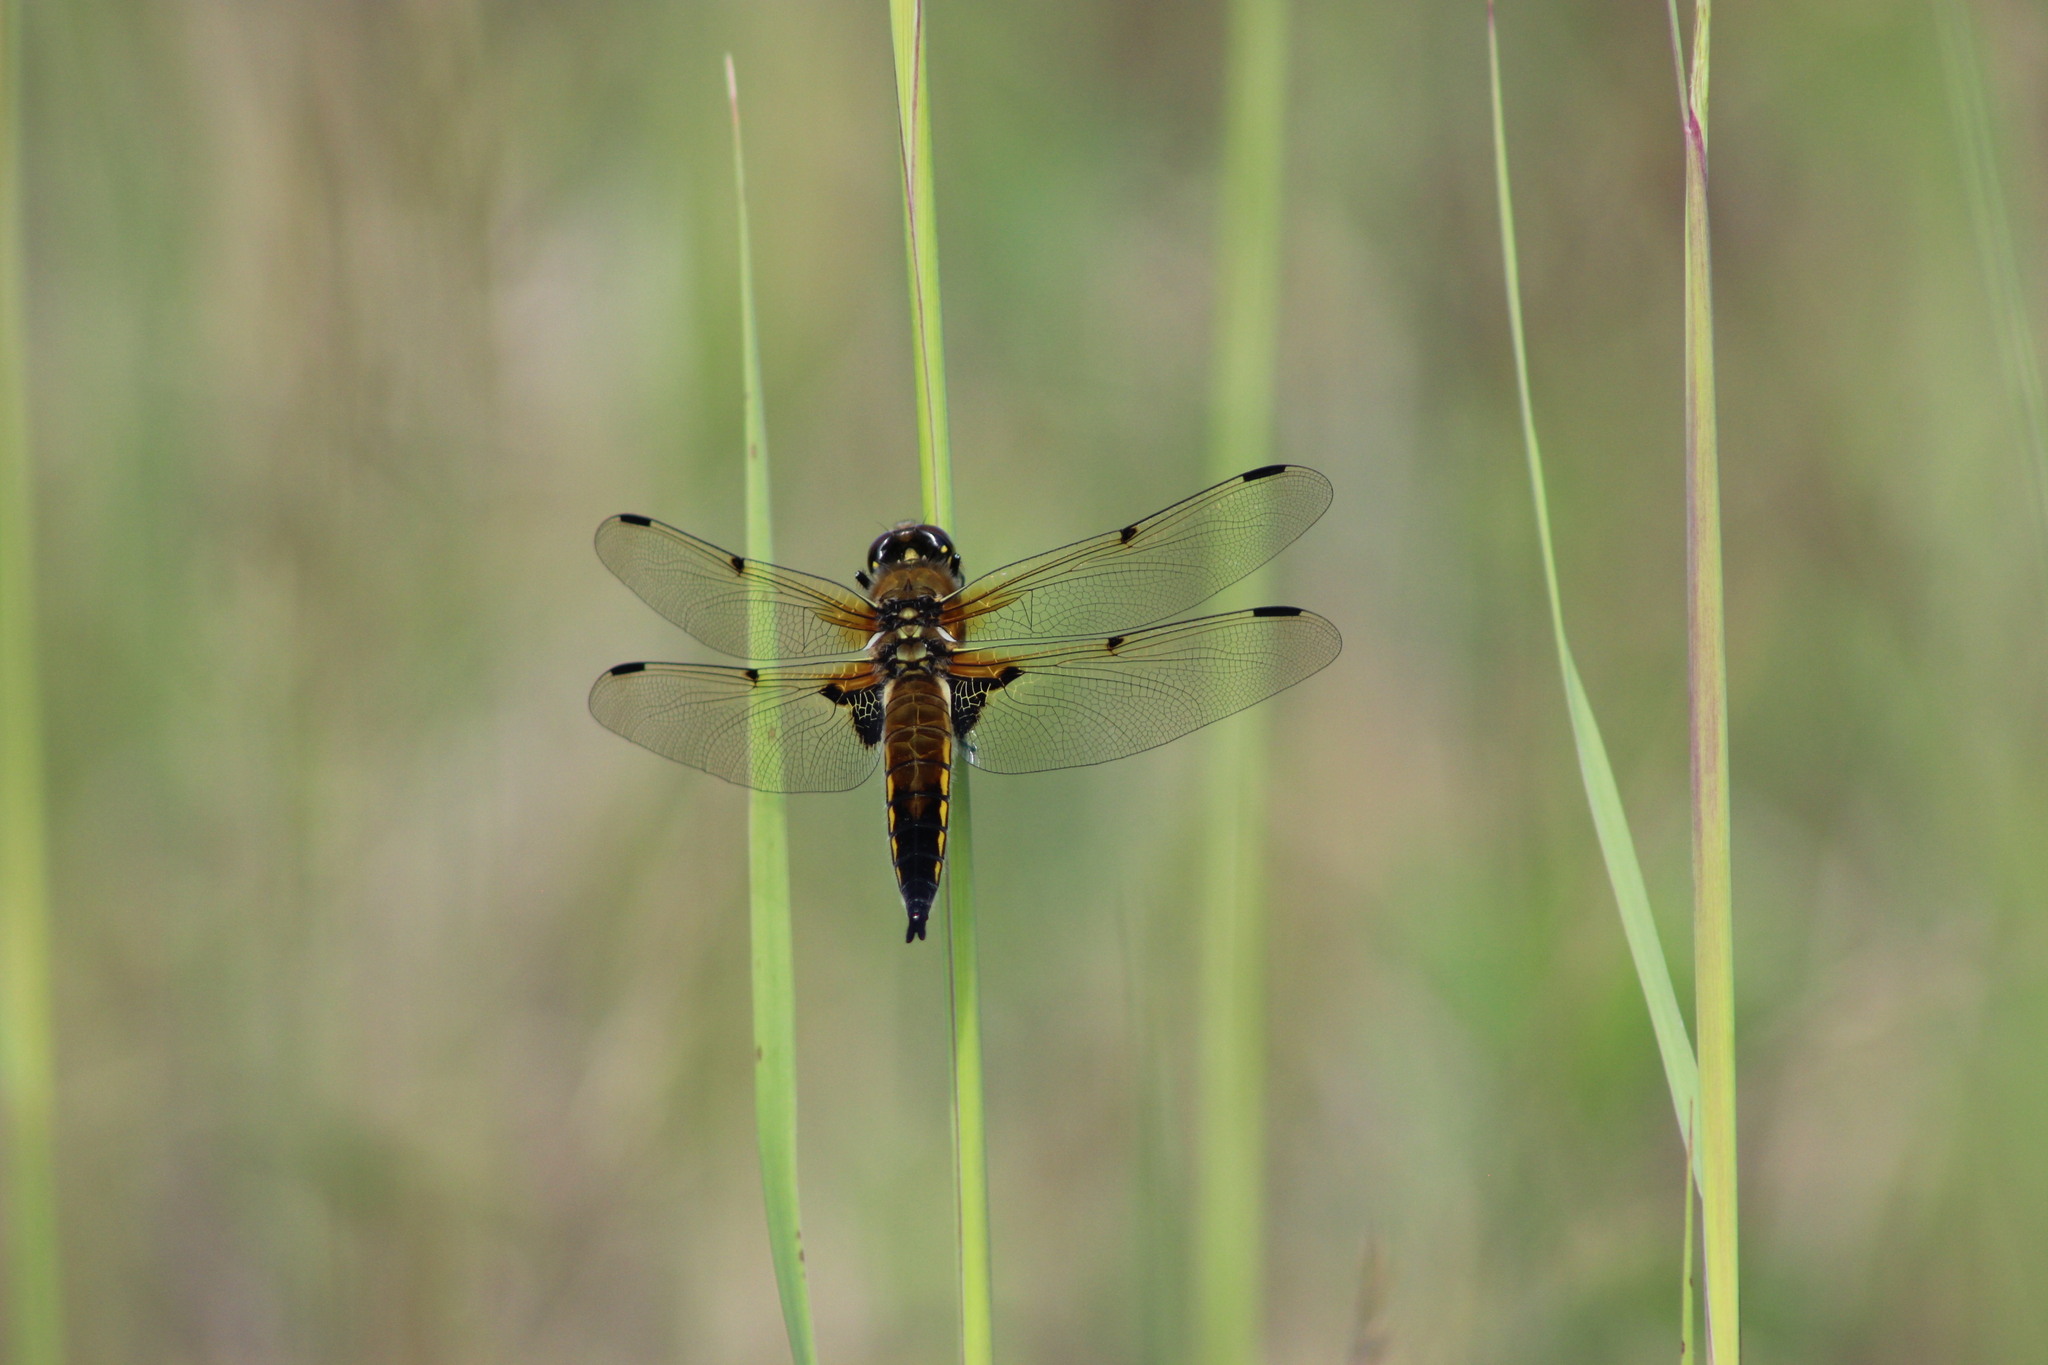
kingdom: Animalia
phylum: Arthropoda
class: Insecta
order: Odonata
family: Libellulidae
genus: Libellula
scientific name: Libellula quadrimaculata
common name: Four-spotted chaser
